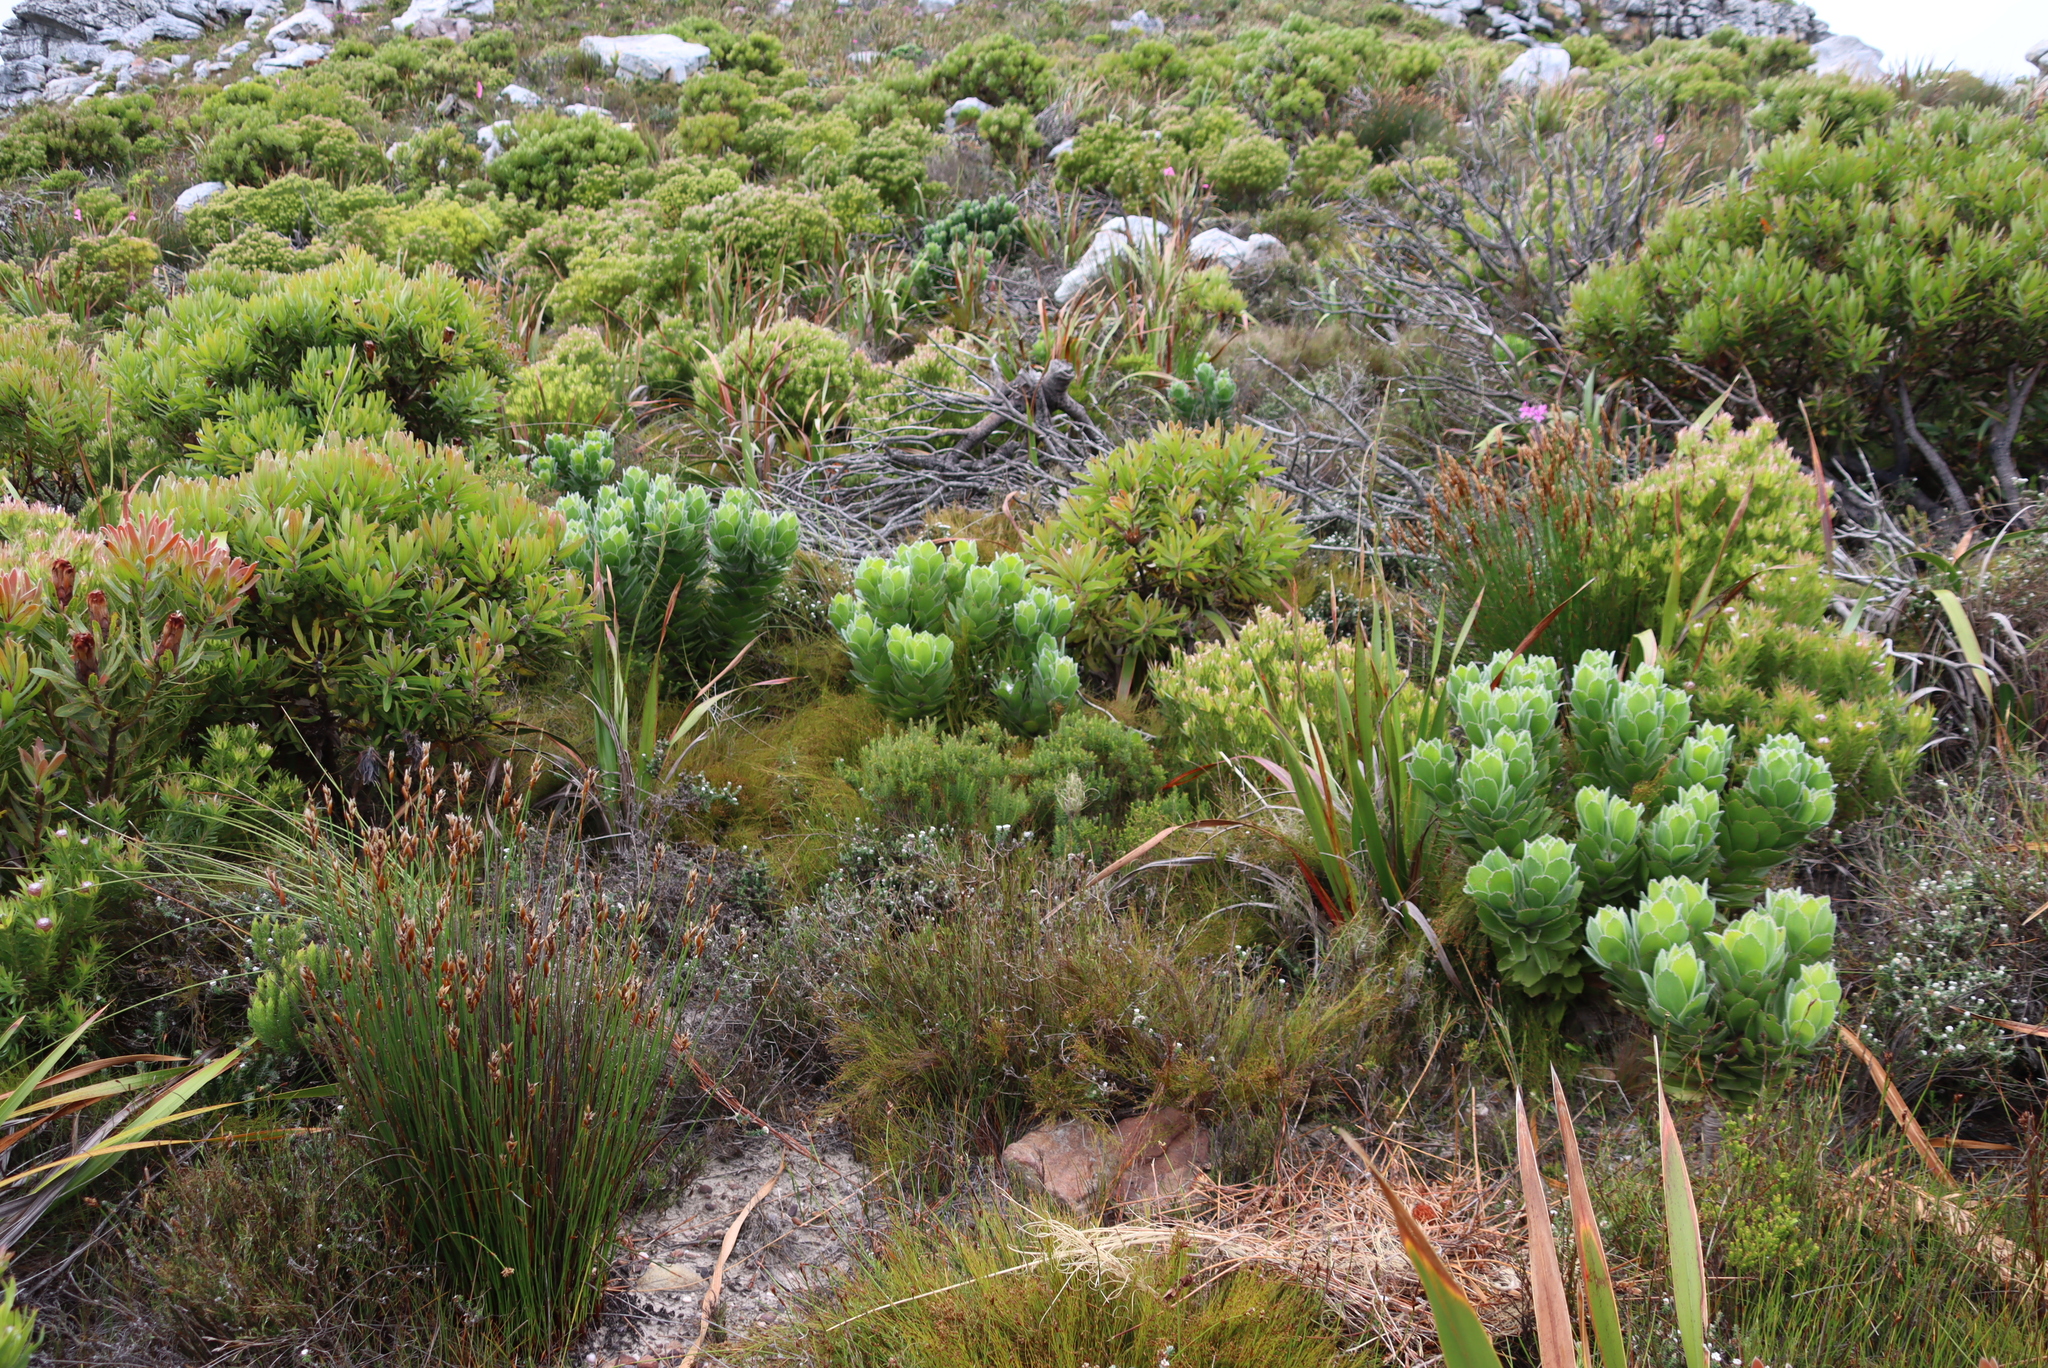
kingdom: Plantae
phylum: Tracheophyta
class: Magnoliopsida
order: Proteales
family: Proteaceae
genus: Leucospermum
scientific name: Leucospermum conocarpodendron
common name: Tree pincushion
